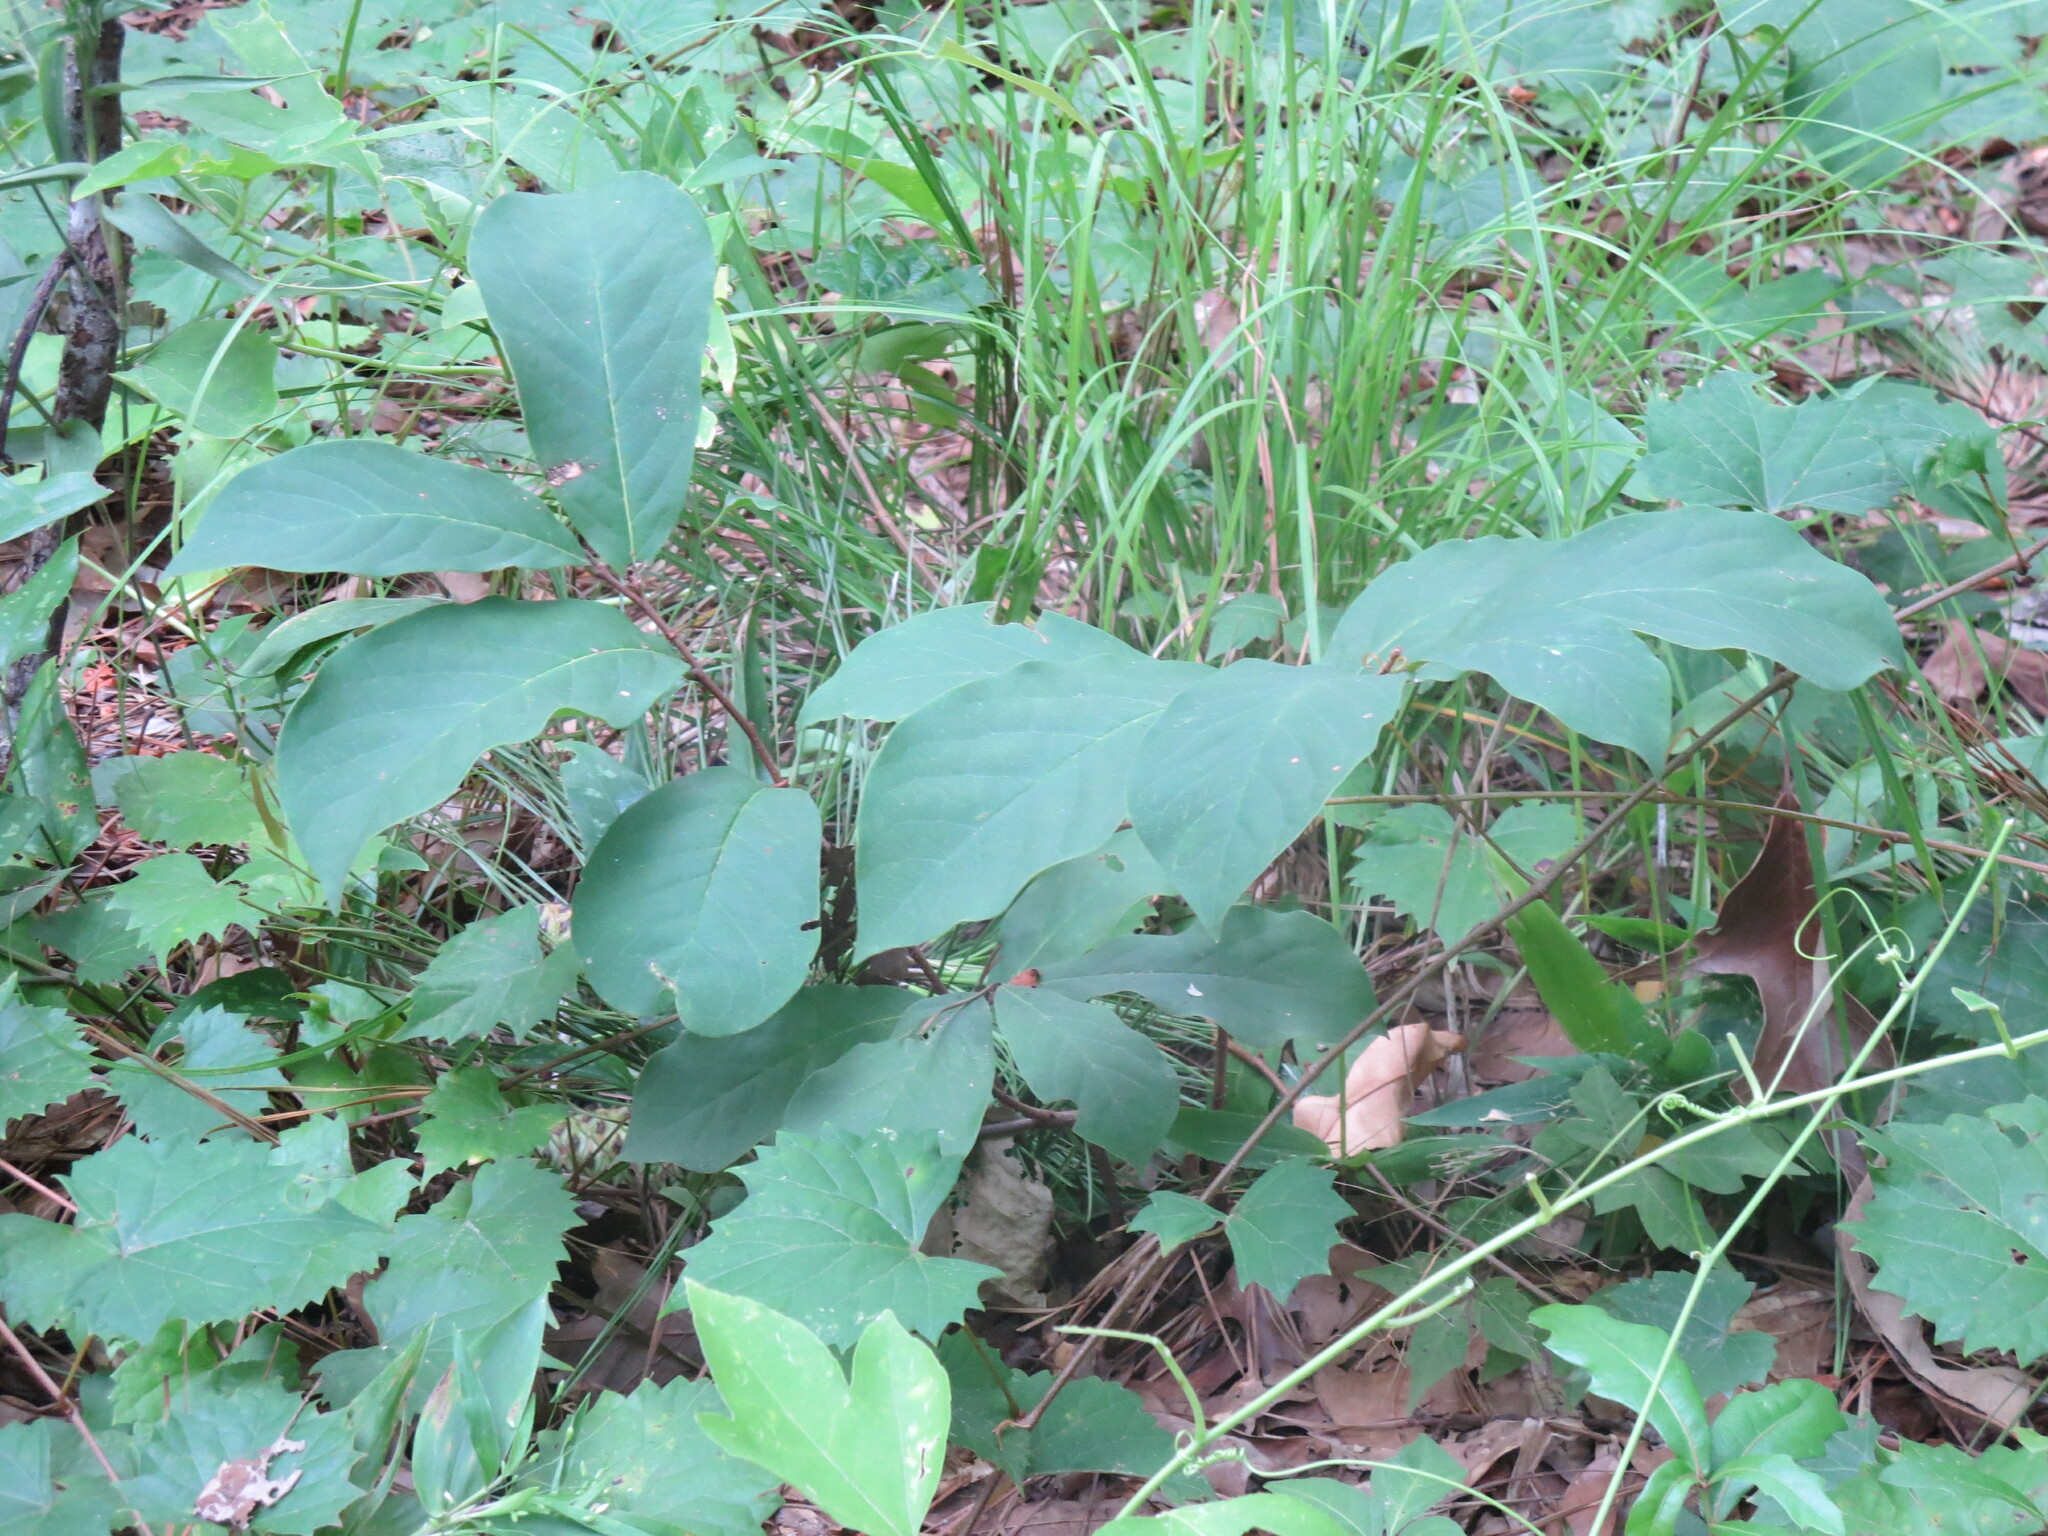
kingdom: Plantae
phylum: Tracheophyta
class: Magnoliopsida
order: Magnoliales
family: Annonaceae
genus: Asimina
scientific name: Asimina parviflora
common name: Dwarf pawpaw
